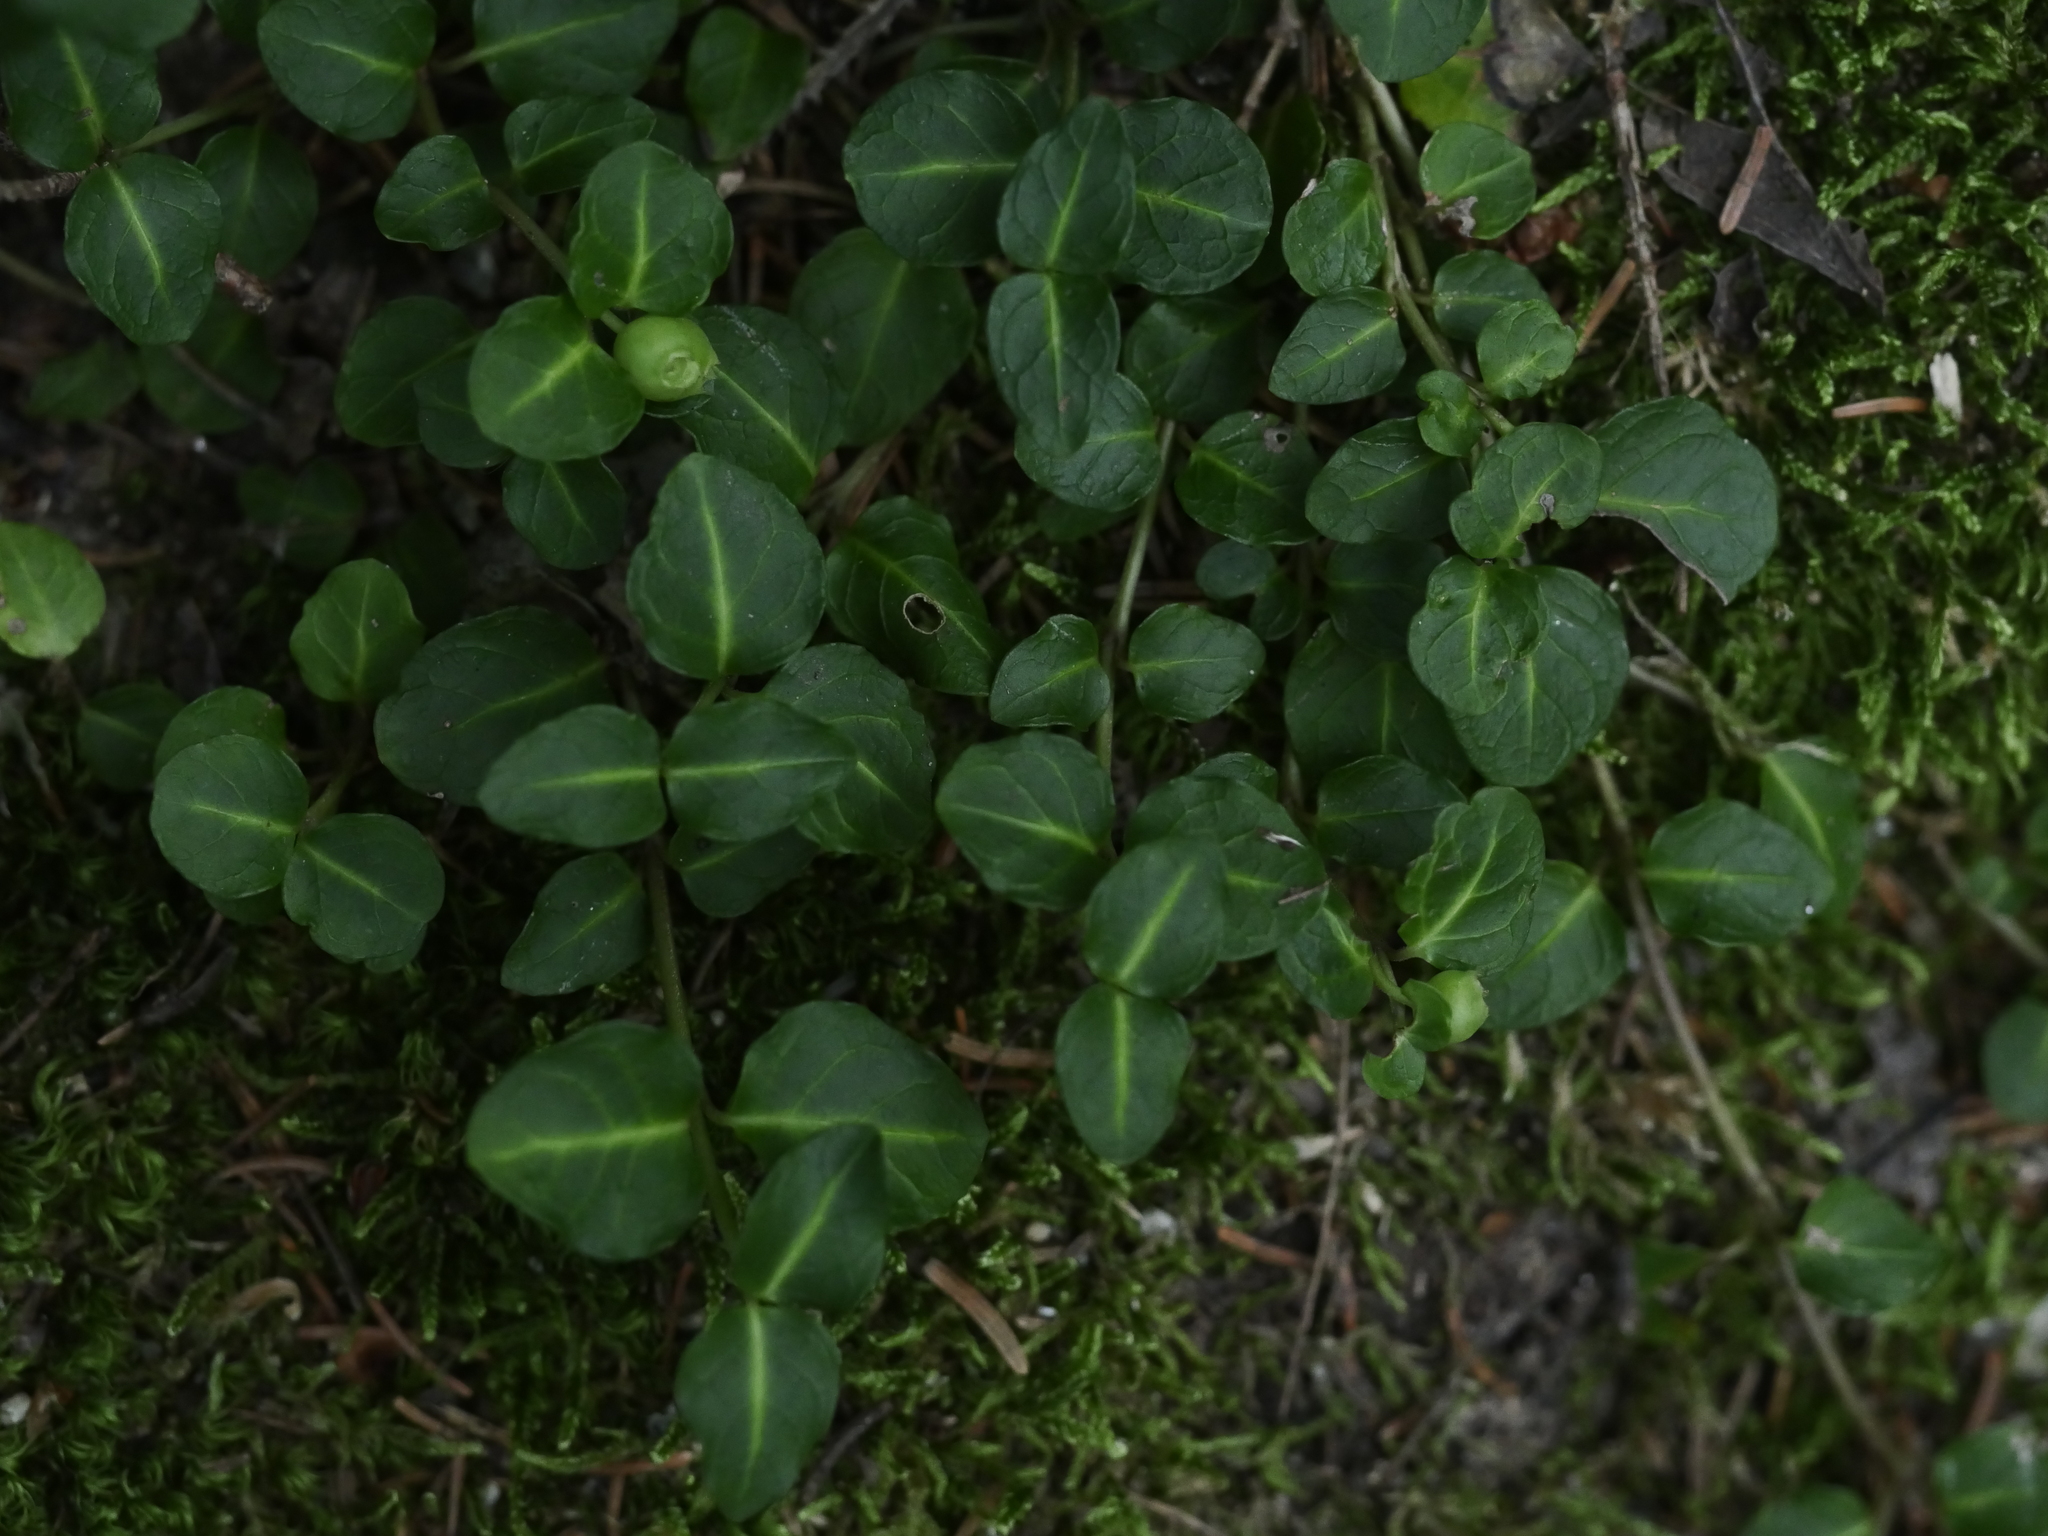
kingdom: Plantae
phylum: Tracheophyta
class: Magnoliopsida
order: Gentianales
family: Rubiaceae
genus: Mitchella
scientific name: Mitchella repens
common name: Partridge-berry
